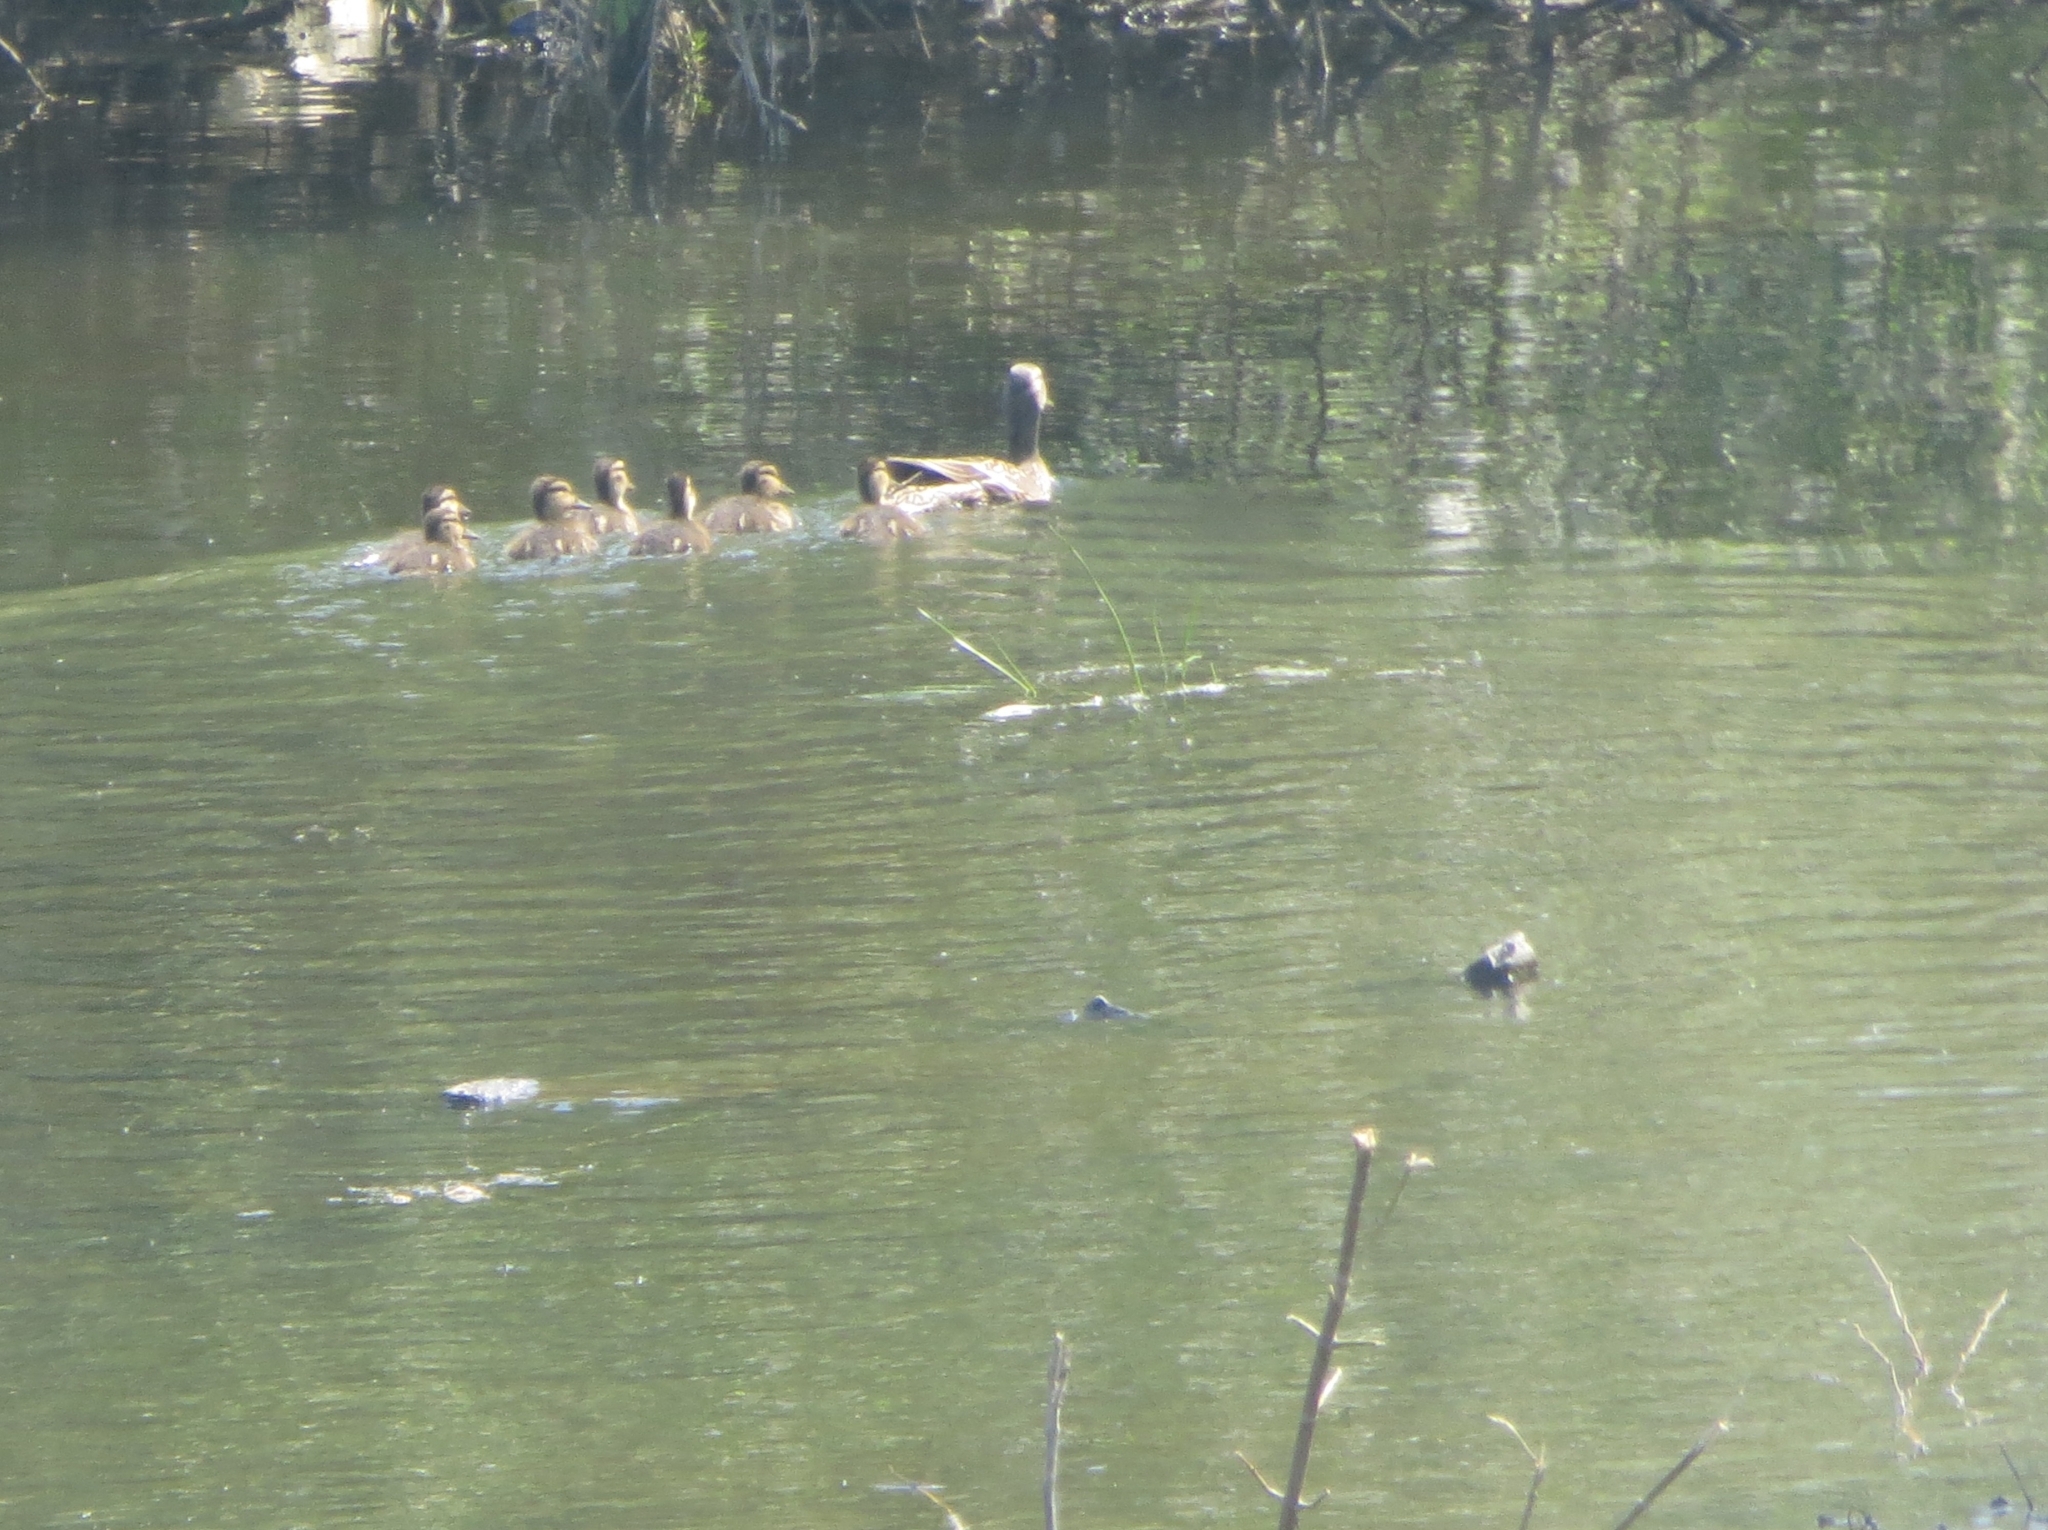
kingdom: Animalia
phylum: Chordata
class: Aves
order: Anseriformes
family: Anatidae
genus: Anas
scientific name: Anas platyrhynchos
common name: Mallard
